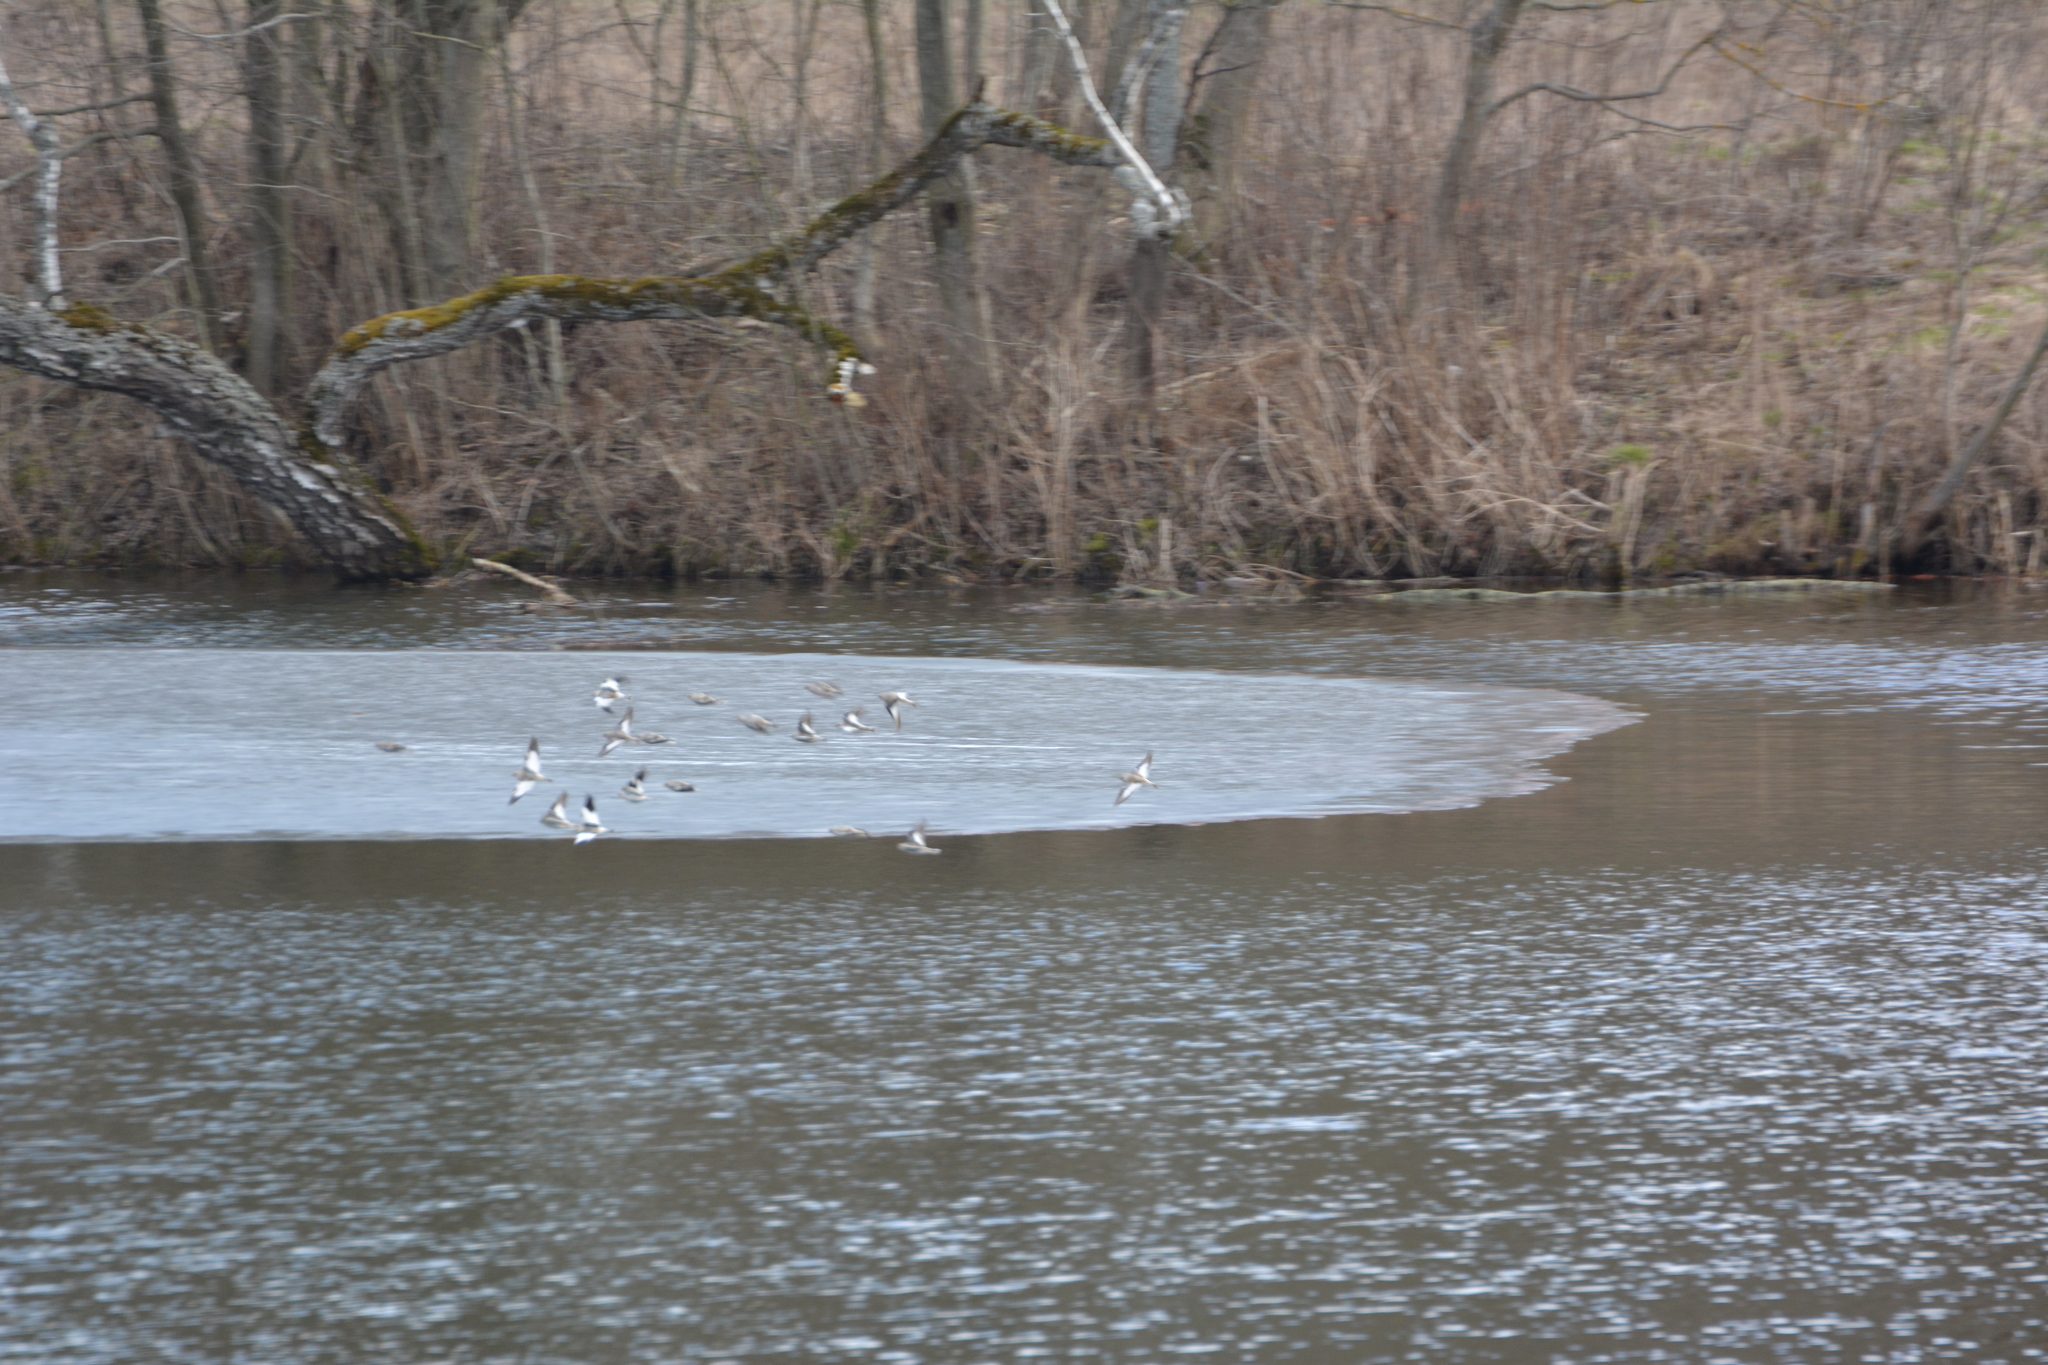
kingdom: Animalia
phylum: Chordata
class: Aves
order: Passeriformes
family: Calcariidae
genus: Plectrophenax
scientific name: Plectrophenax nivalis
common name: Snow bunting
